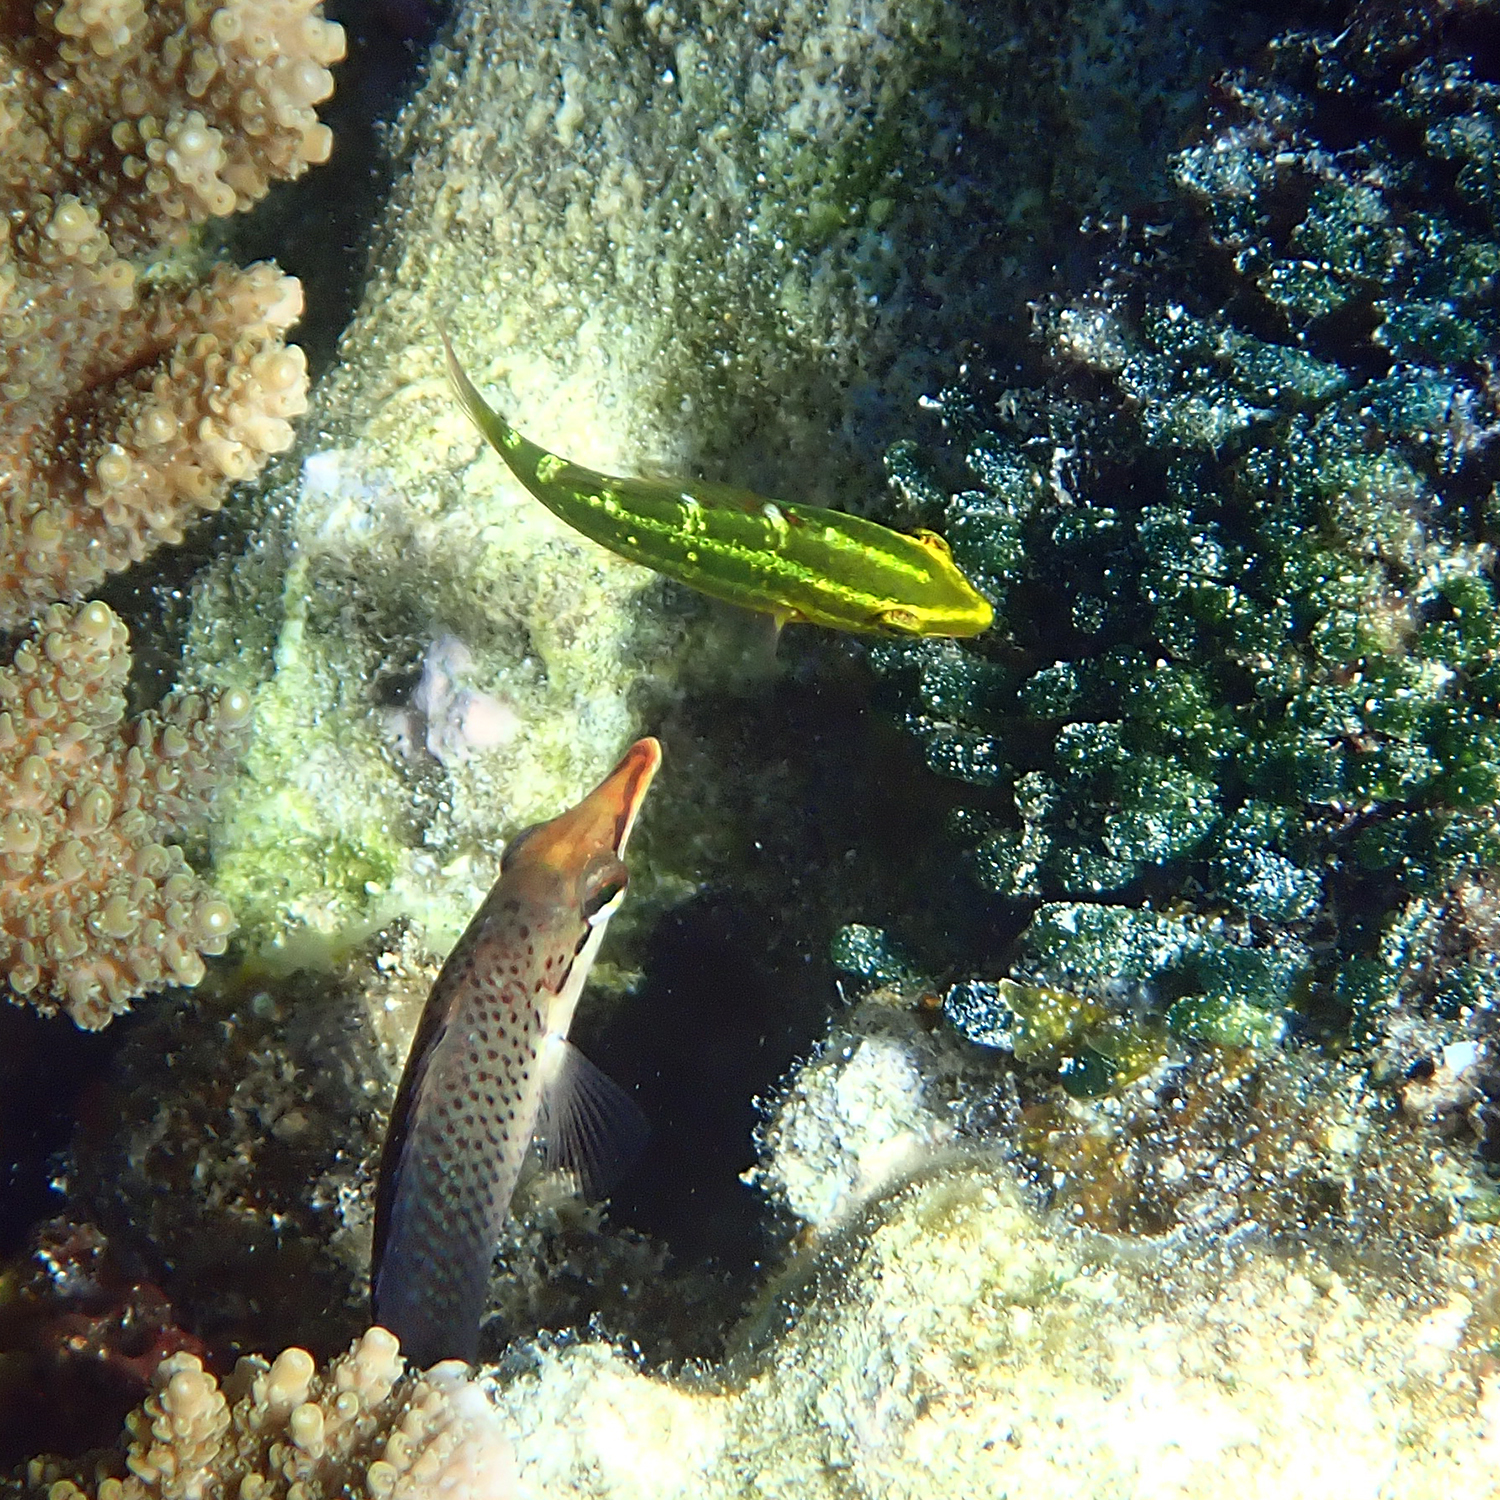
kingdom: Animalia
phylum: Chordata
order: Perciformes
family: Scaridae
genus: Scarus
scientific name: Scarus frenatus
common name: Bridled parrotfish
